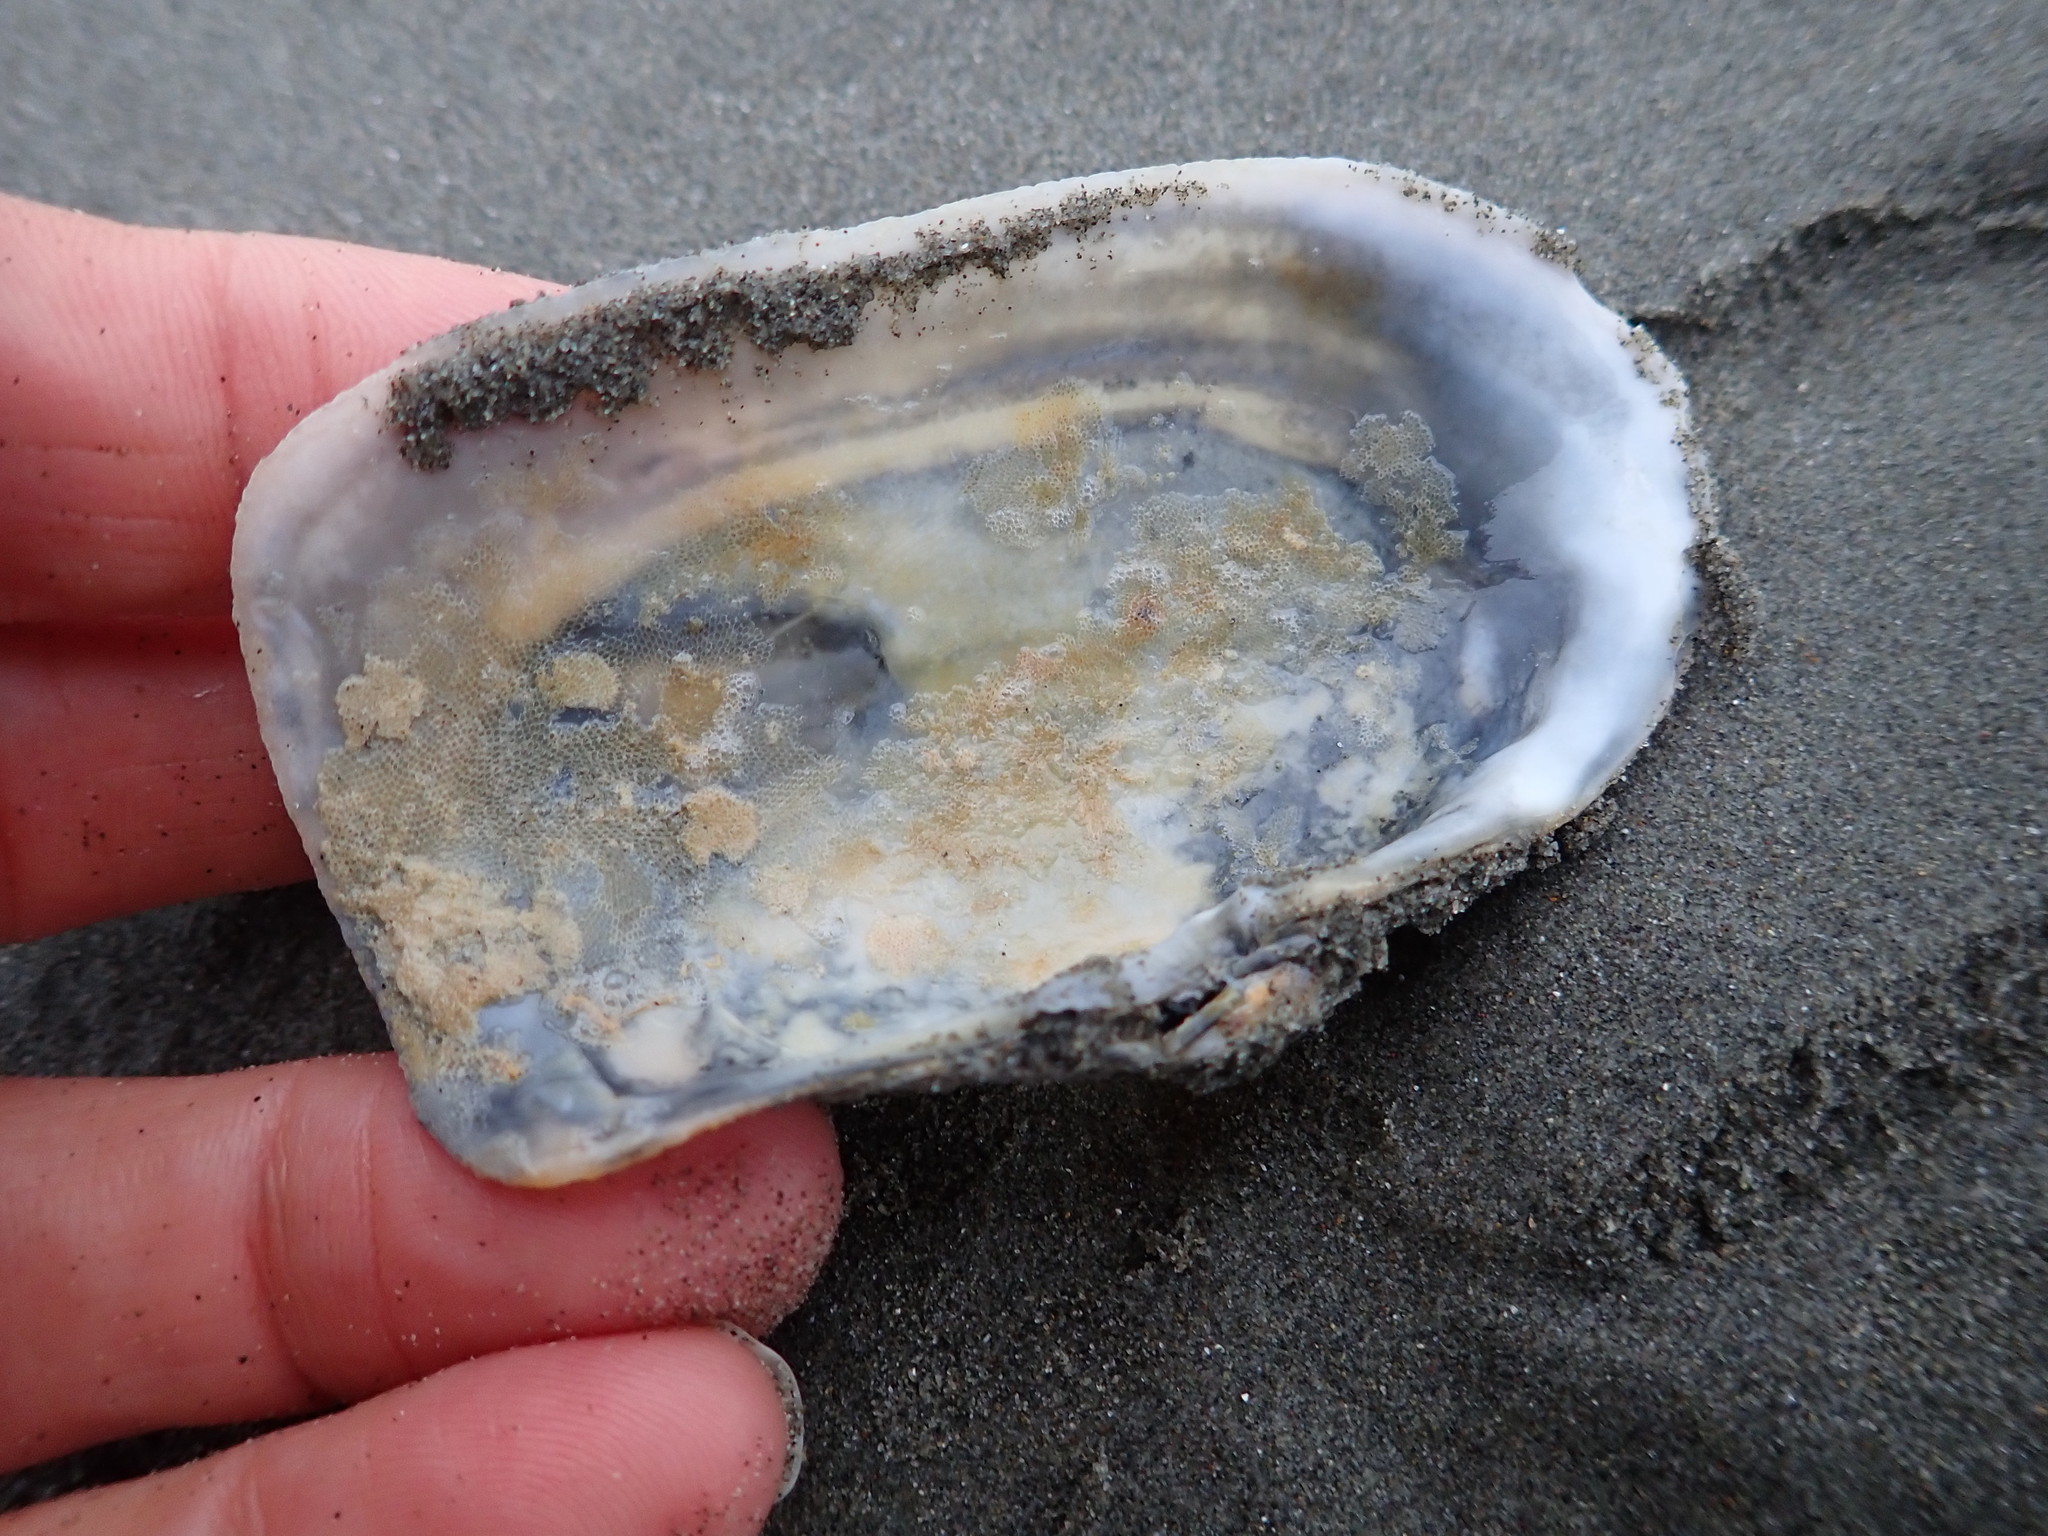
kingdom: Animalia
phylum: Mollusca
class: Bivalvia
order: Adapedonta
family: Hiatellidae
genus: Panopea
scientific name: Panopea zelandica
